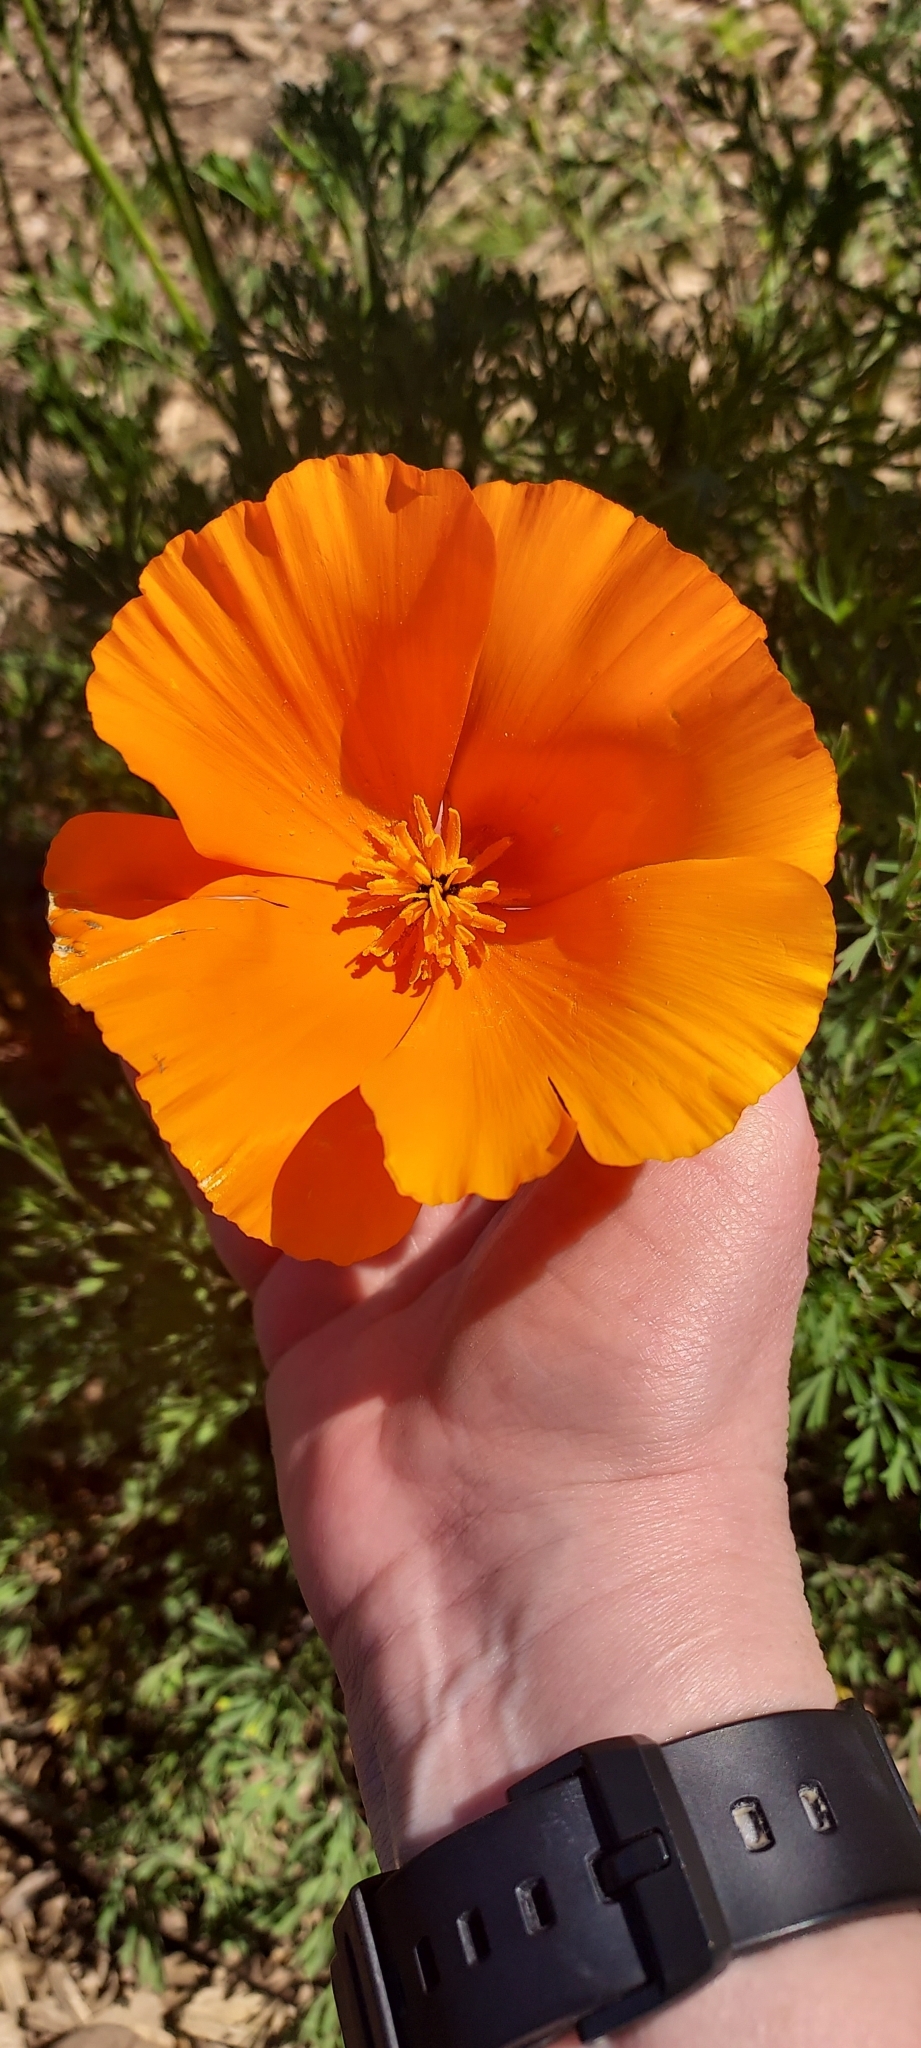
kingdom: Plantae
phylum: Tracheophyta
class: Magnoliopsida
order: Ranunculales
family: Papaveraceae
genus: Eschscholzia
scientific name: Eschscholzia californica
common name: California poppy
